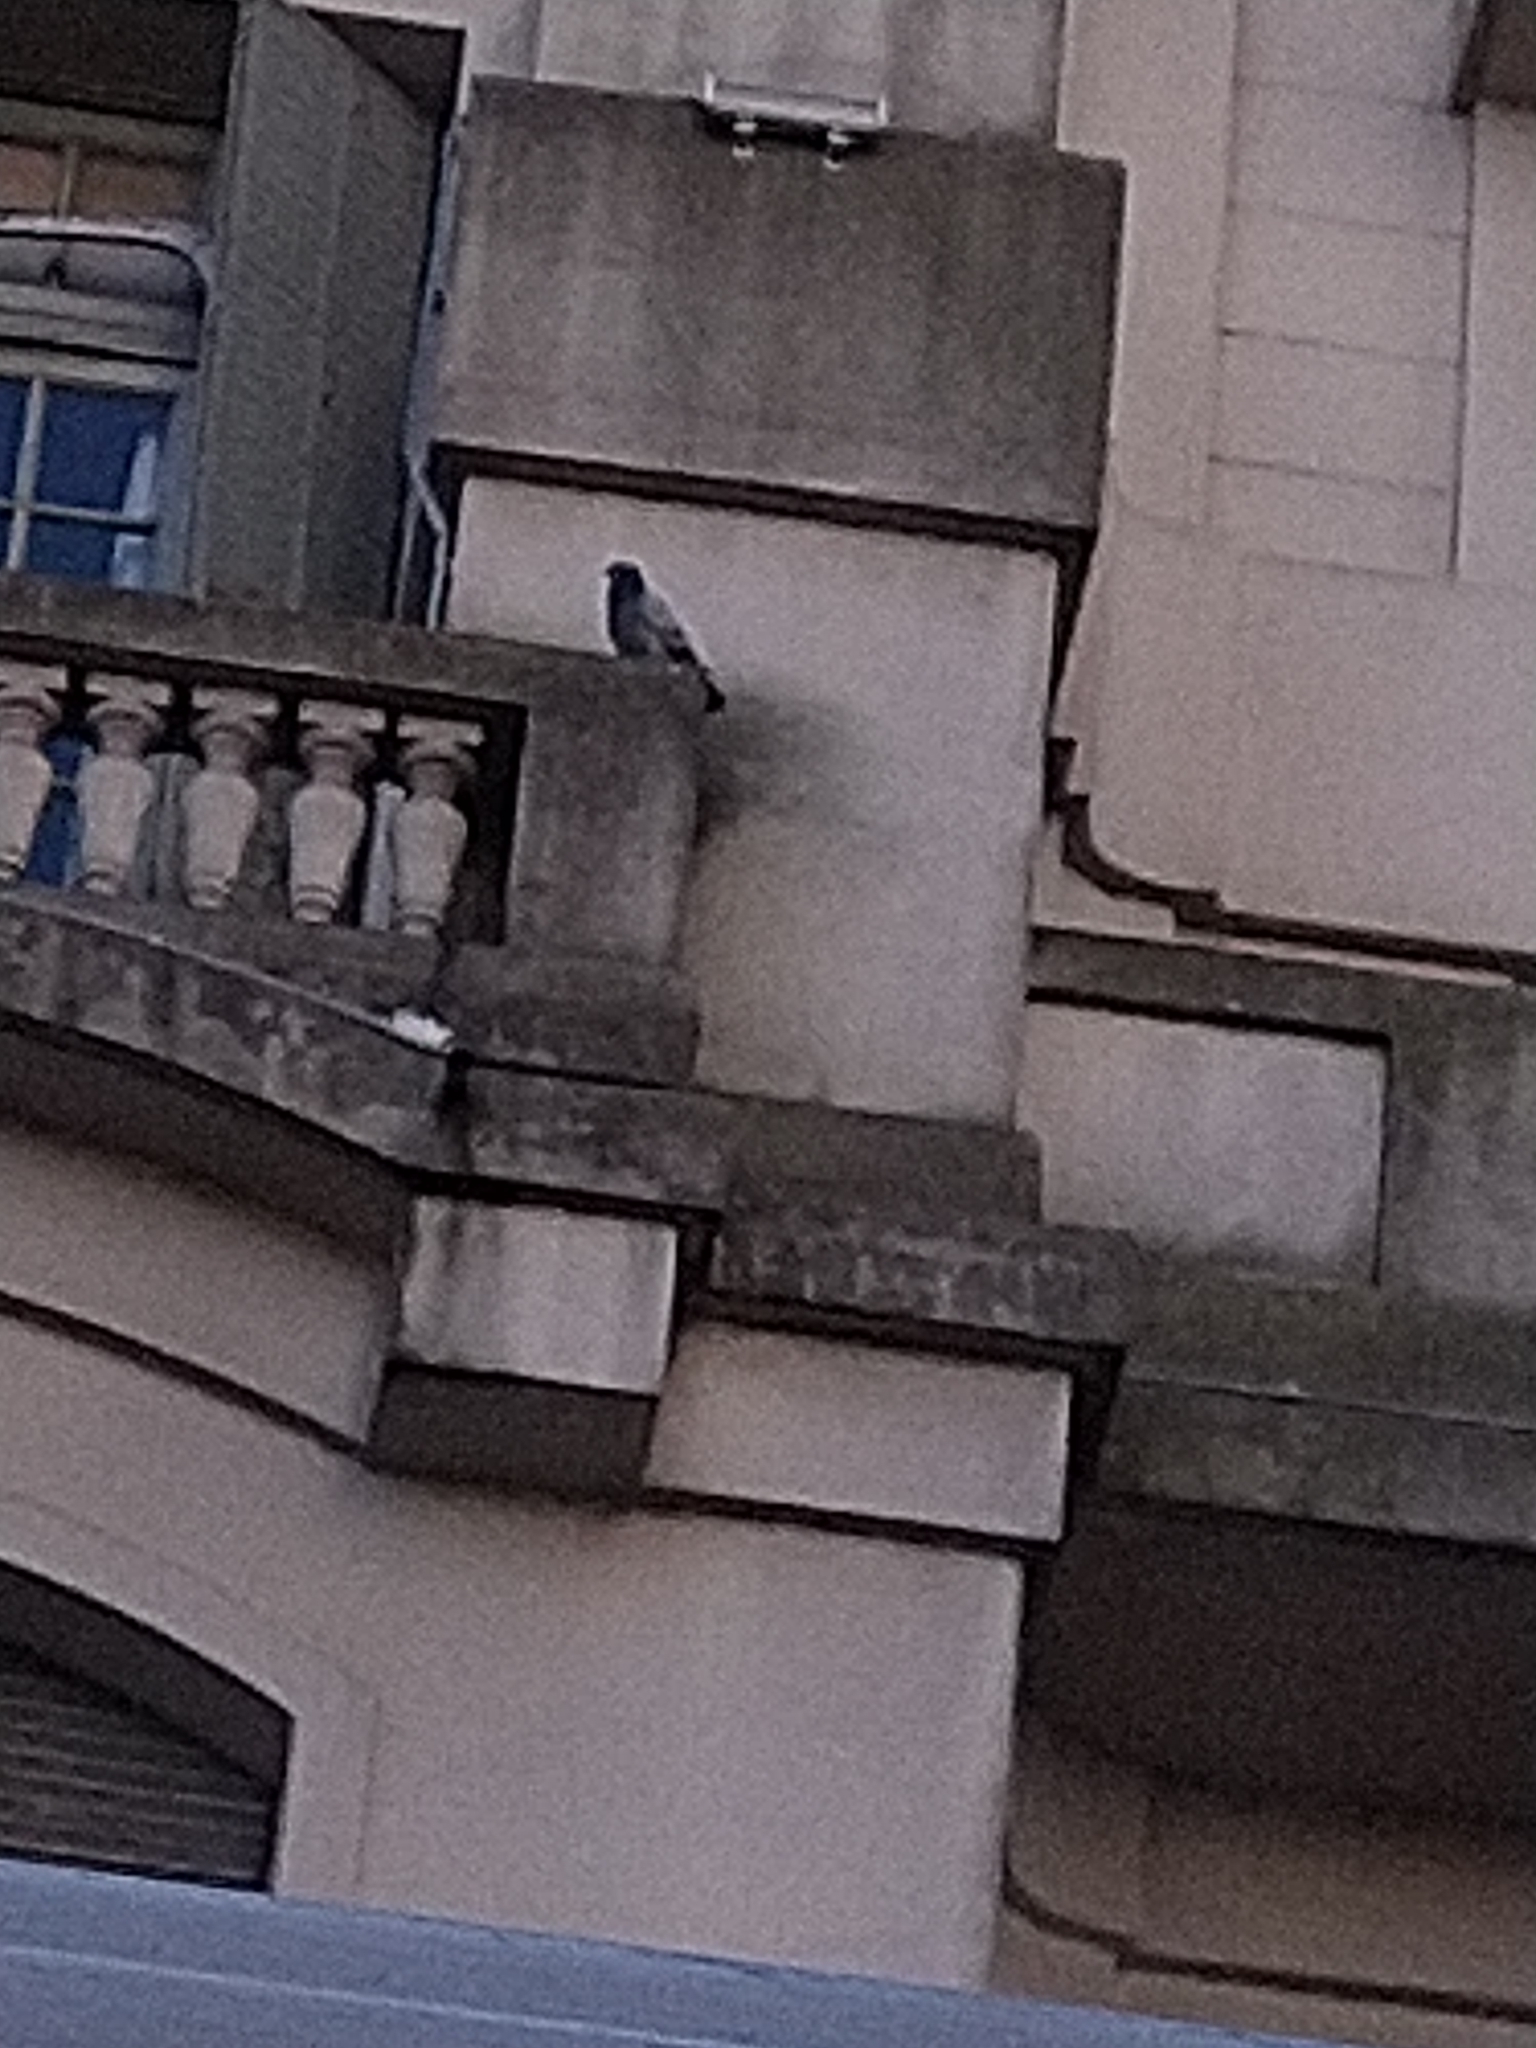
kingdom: Animalia
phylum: Chordata
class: Aves
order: Columbiformes
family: Columbidae
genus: Columba
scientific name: Columba livia
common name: Rock pigeon
